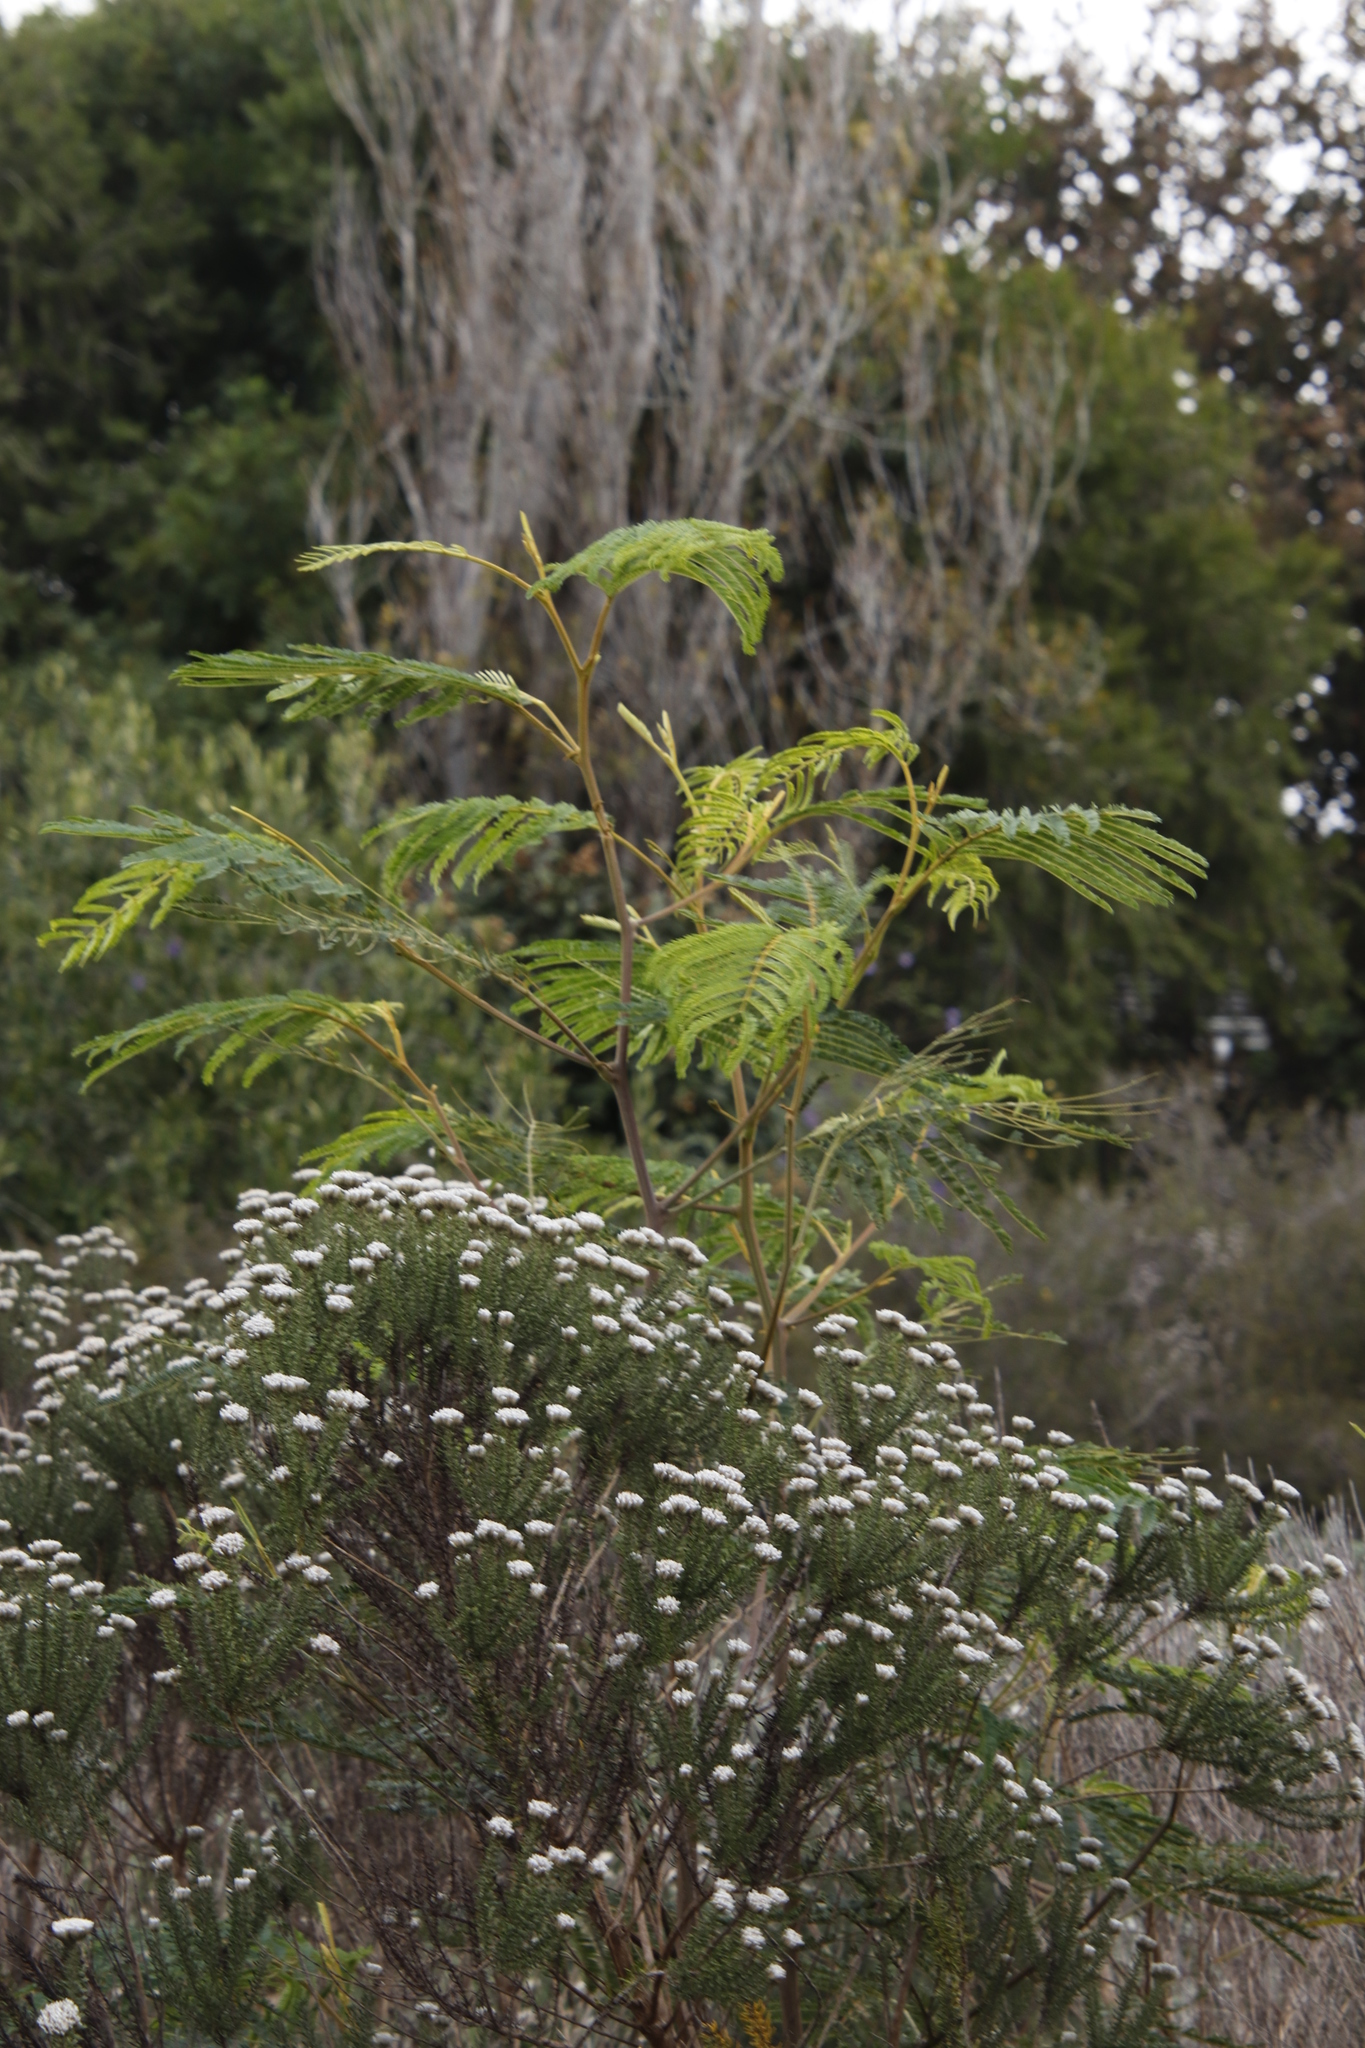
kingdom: Plantae
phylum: Tracheophyta
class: Magnoliopsida
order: Fabales
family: Fabaceae
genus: Paraserianthes
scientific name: Paraserianthes lophantha
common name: Plume albizia
